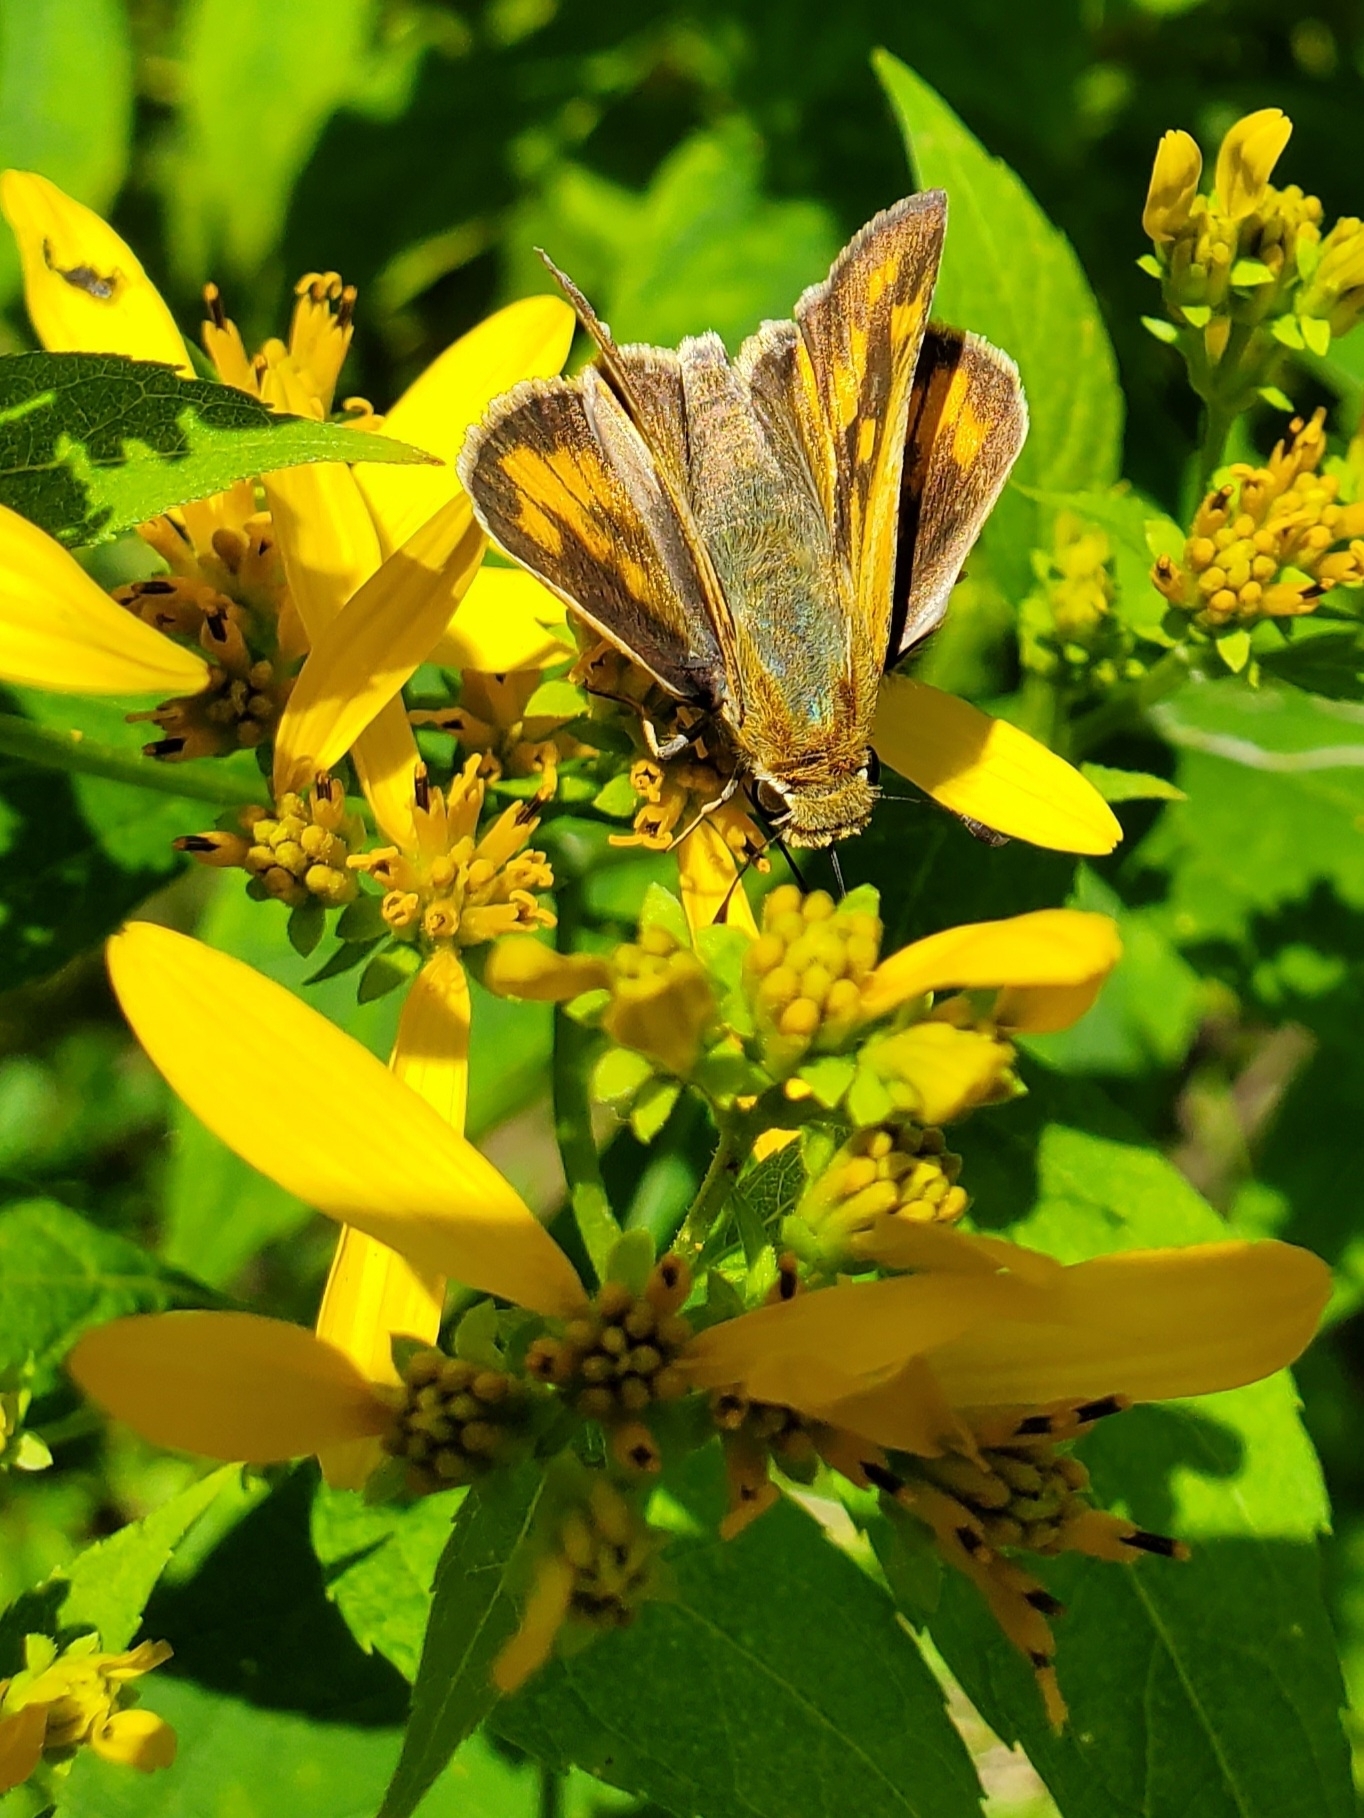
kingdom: Animalia
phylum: Arthropoda
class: Insecta
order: Lepidoptera
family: Hesperiidae
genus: Hylephila
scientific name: Hylephila phyleus
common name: Fiery skipper
